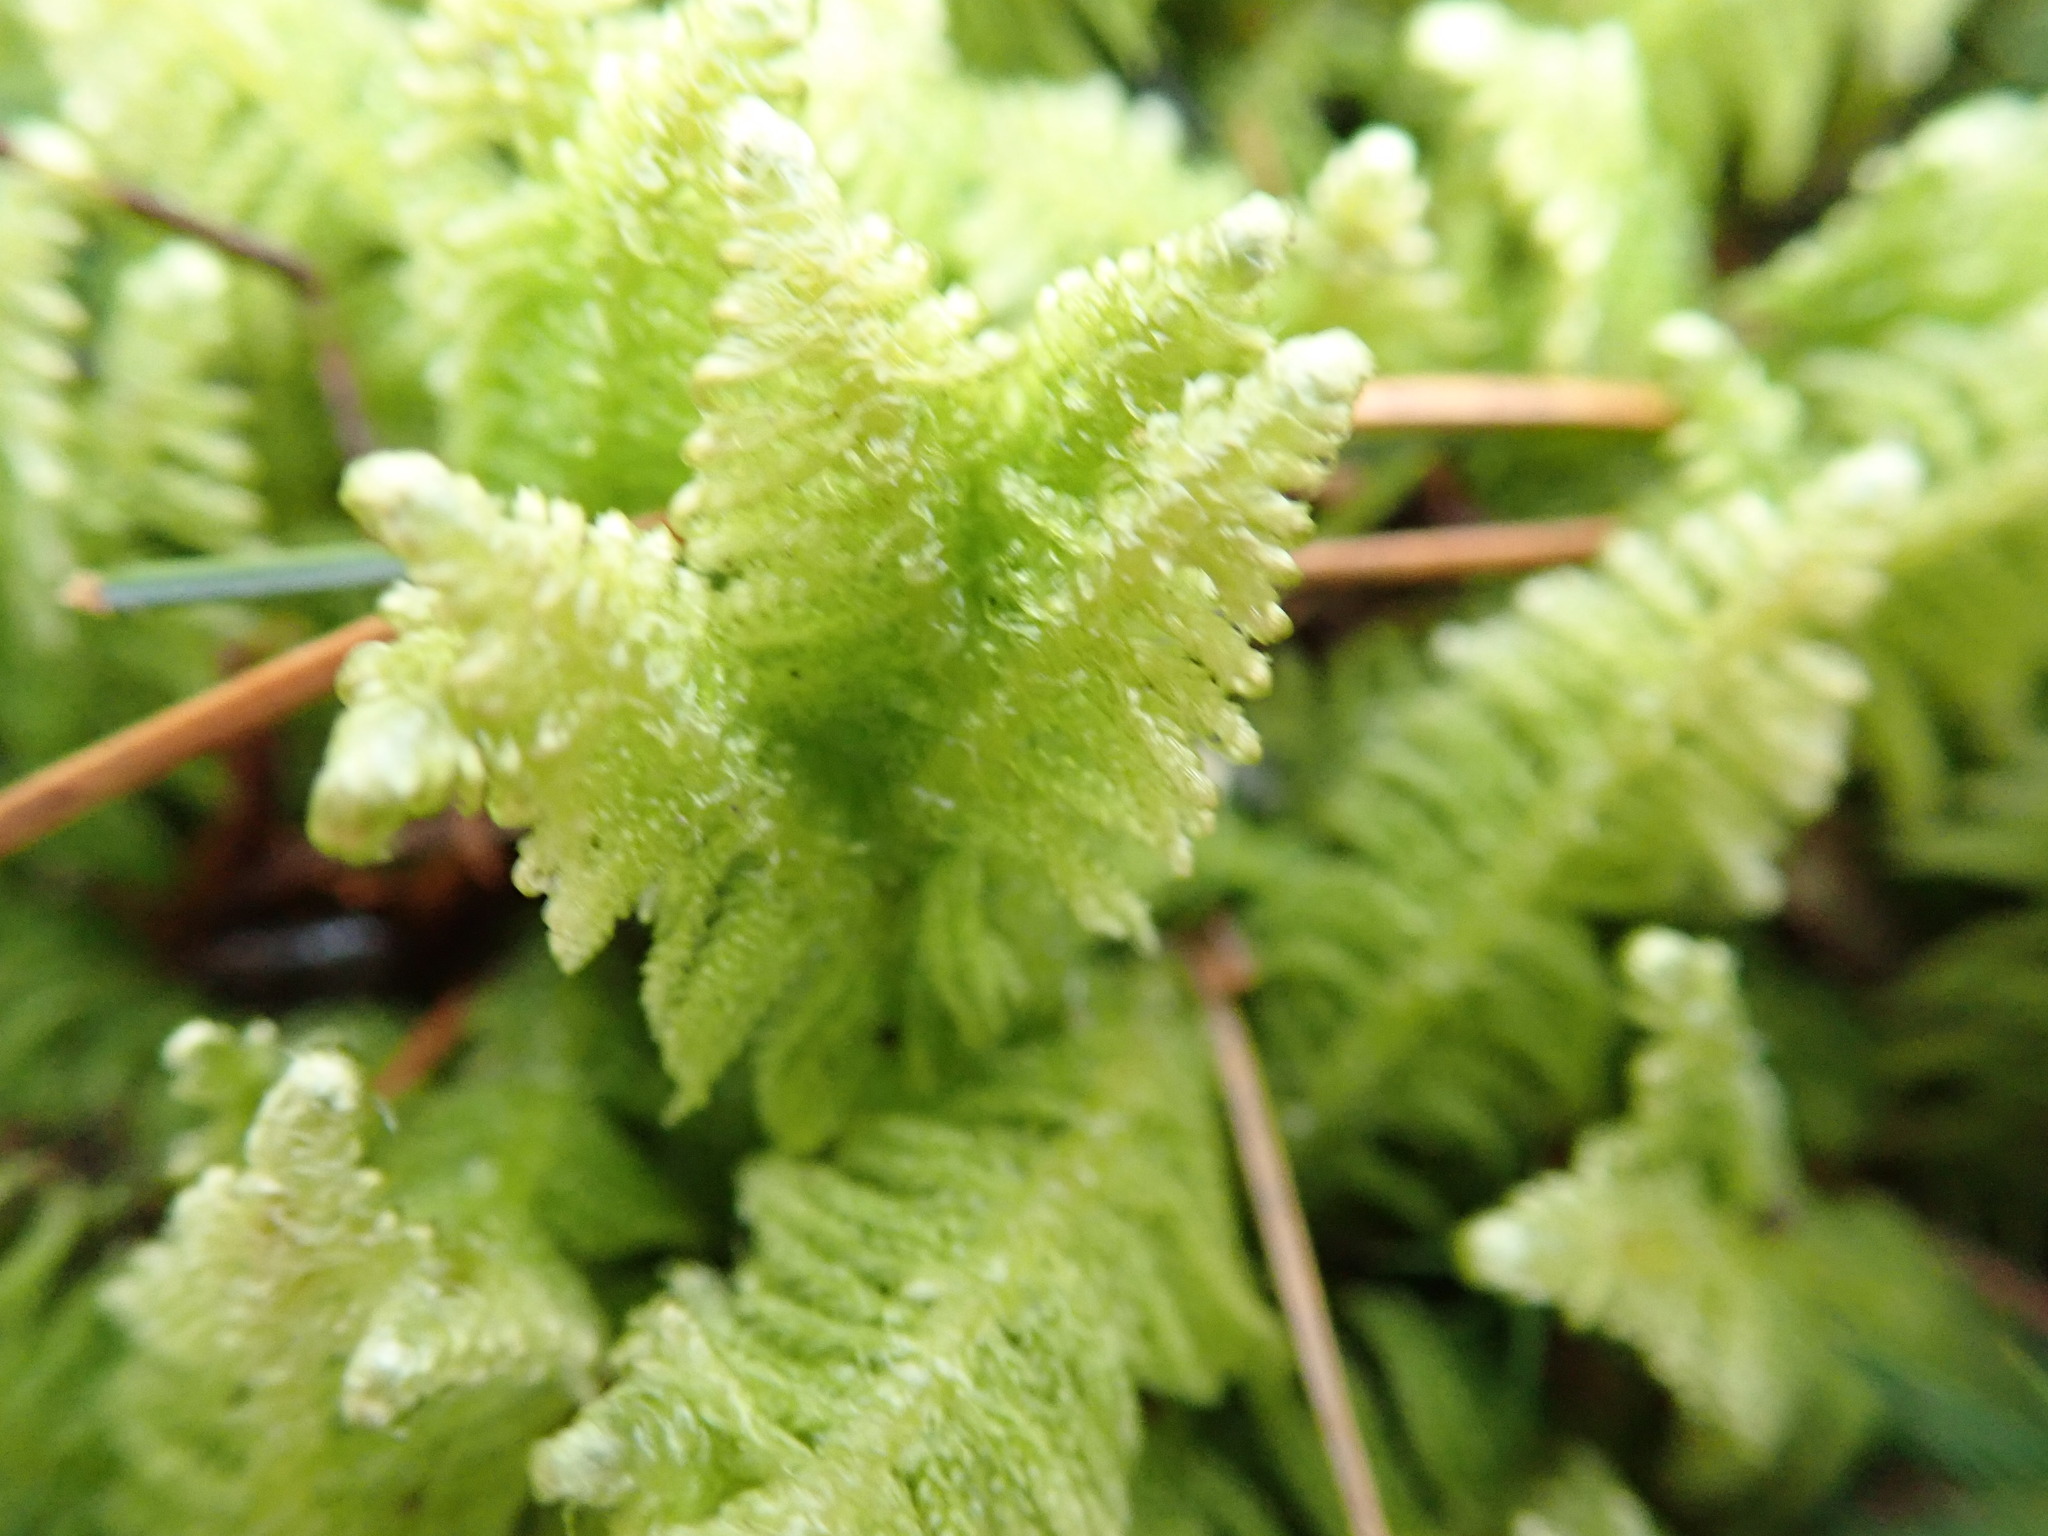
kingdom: Plantae
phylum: Bryophyta
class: Bryopsida
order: Hypnales
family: Pylaisiaceae
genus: Ptilium
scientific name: Ptilium crista-castrensis
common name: Knight's plume moss
